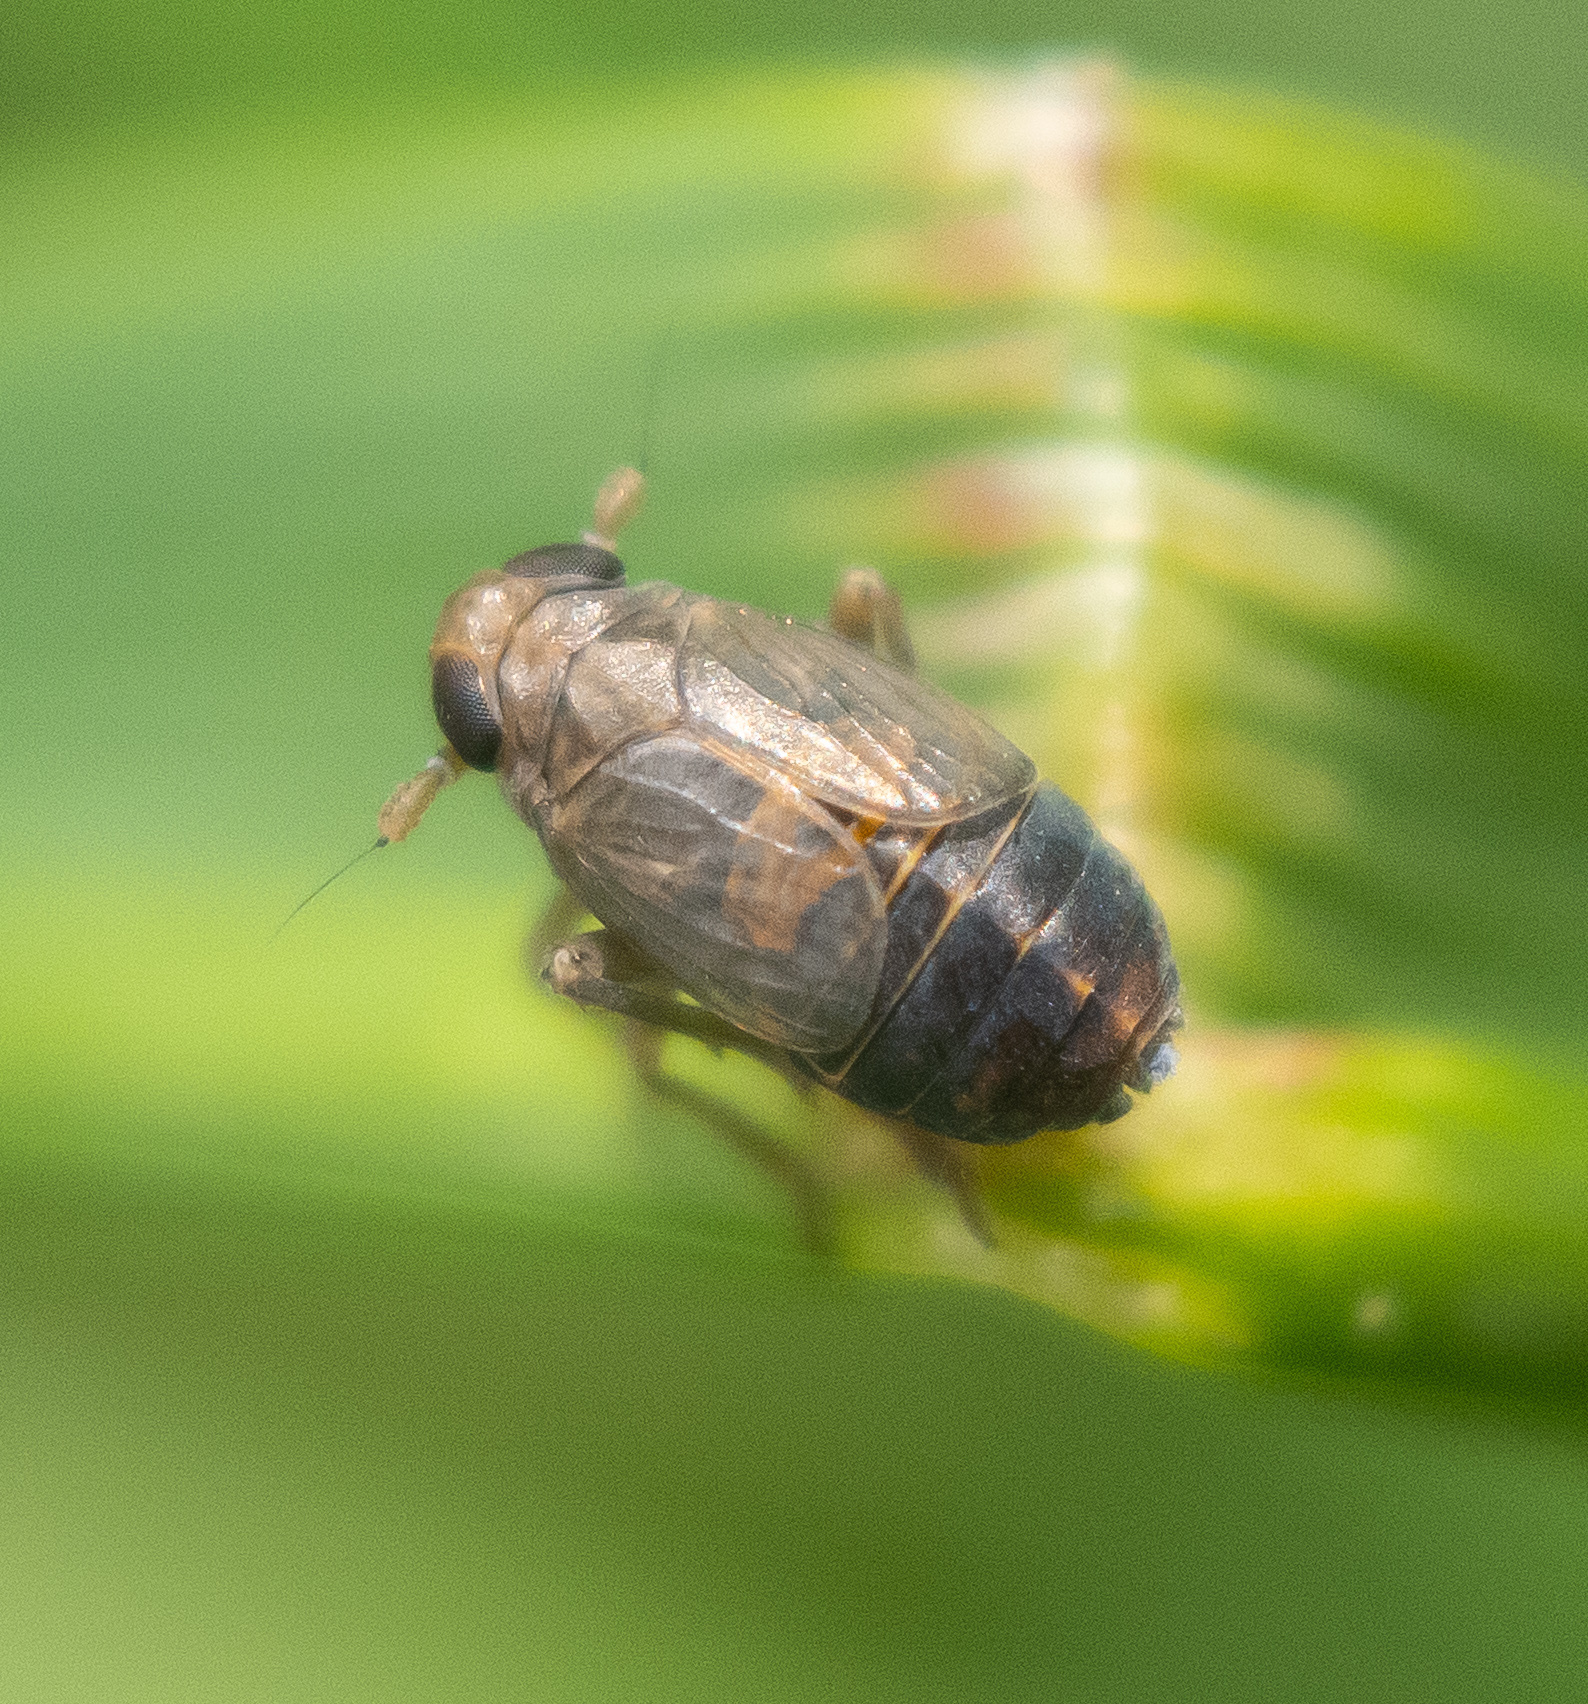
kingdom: Animalia
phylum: Arthropoda
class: Insecta
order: Hemiptera
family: Delphacidae
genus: Kosswigianella
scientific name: Kosswigianella perusta
